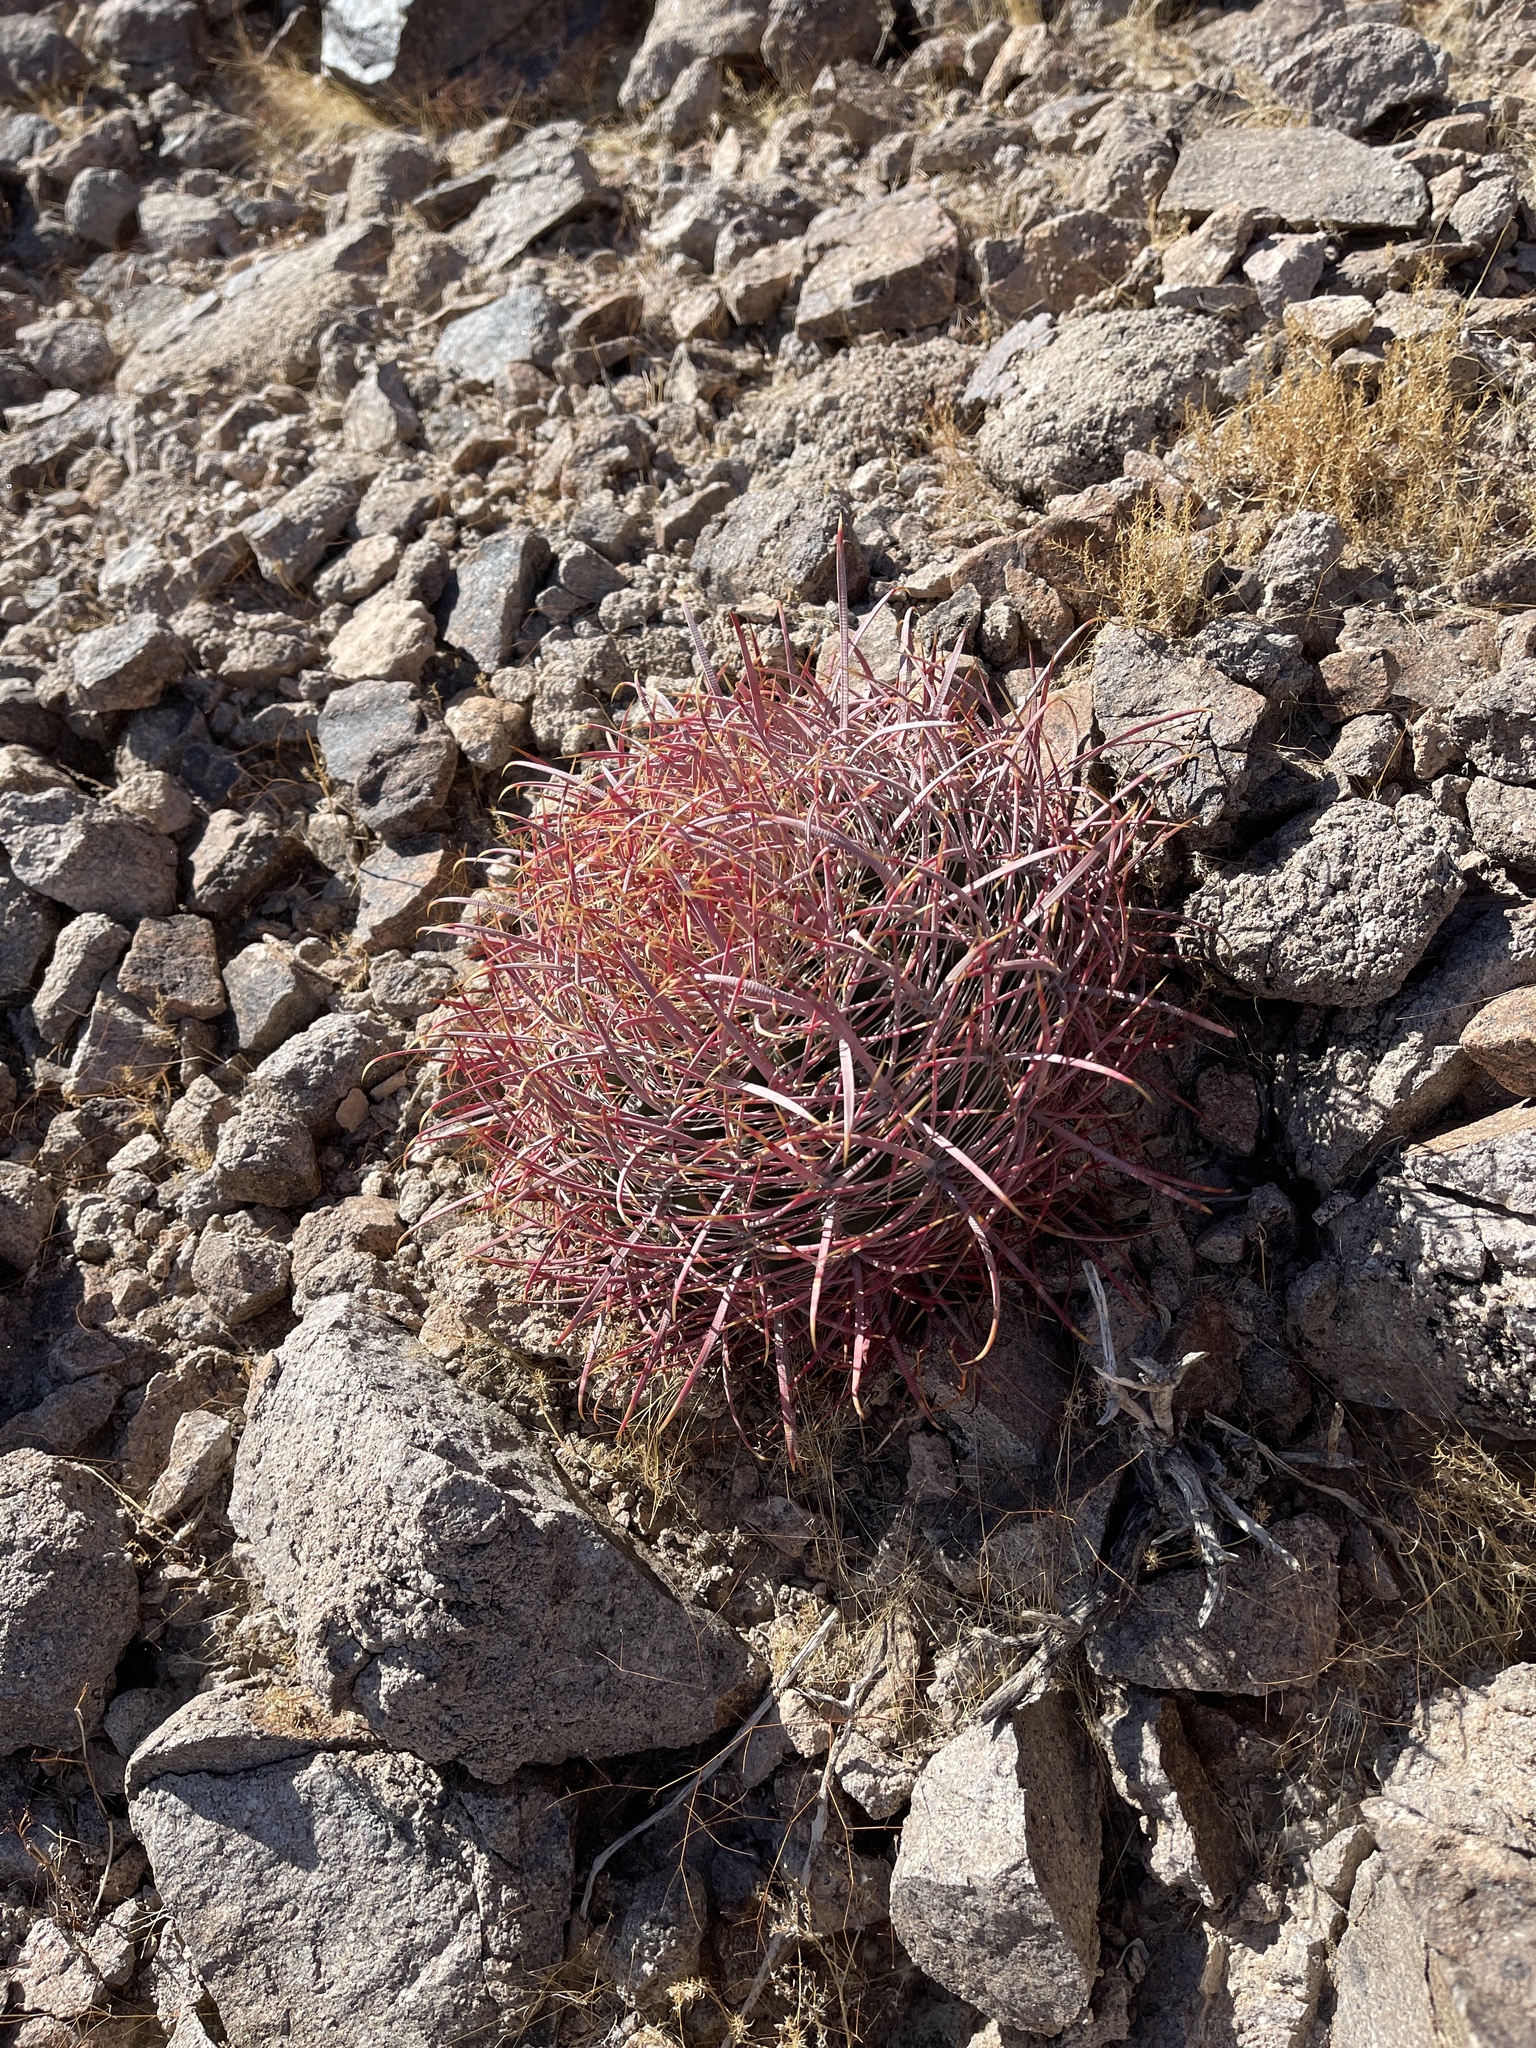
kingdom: Plantae
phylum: Tracheophyta
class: Magnoliopsida
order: Caryophyllales
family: Cactaceae
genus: Ferocactus
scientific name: Ferocactus cylindraceus
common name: California barrel cactus
